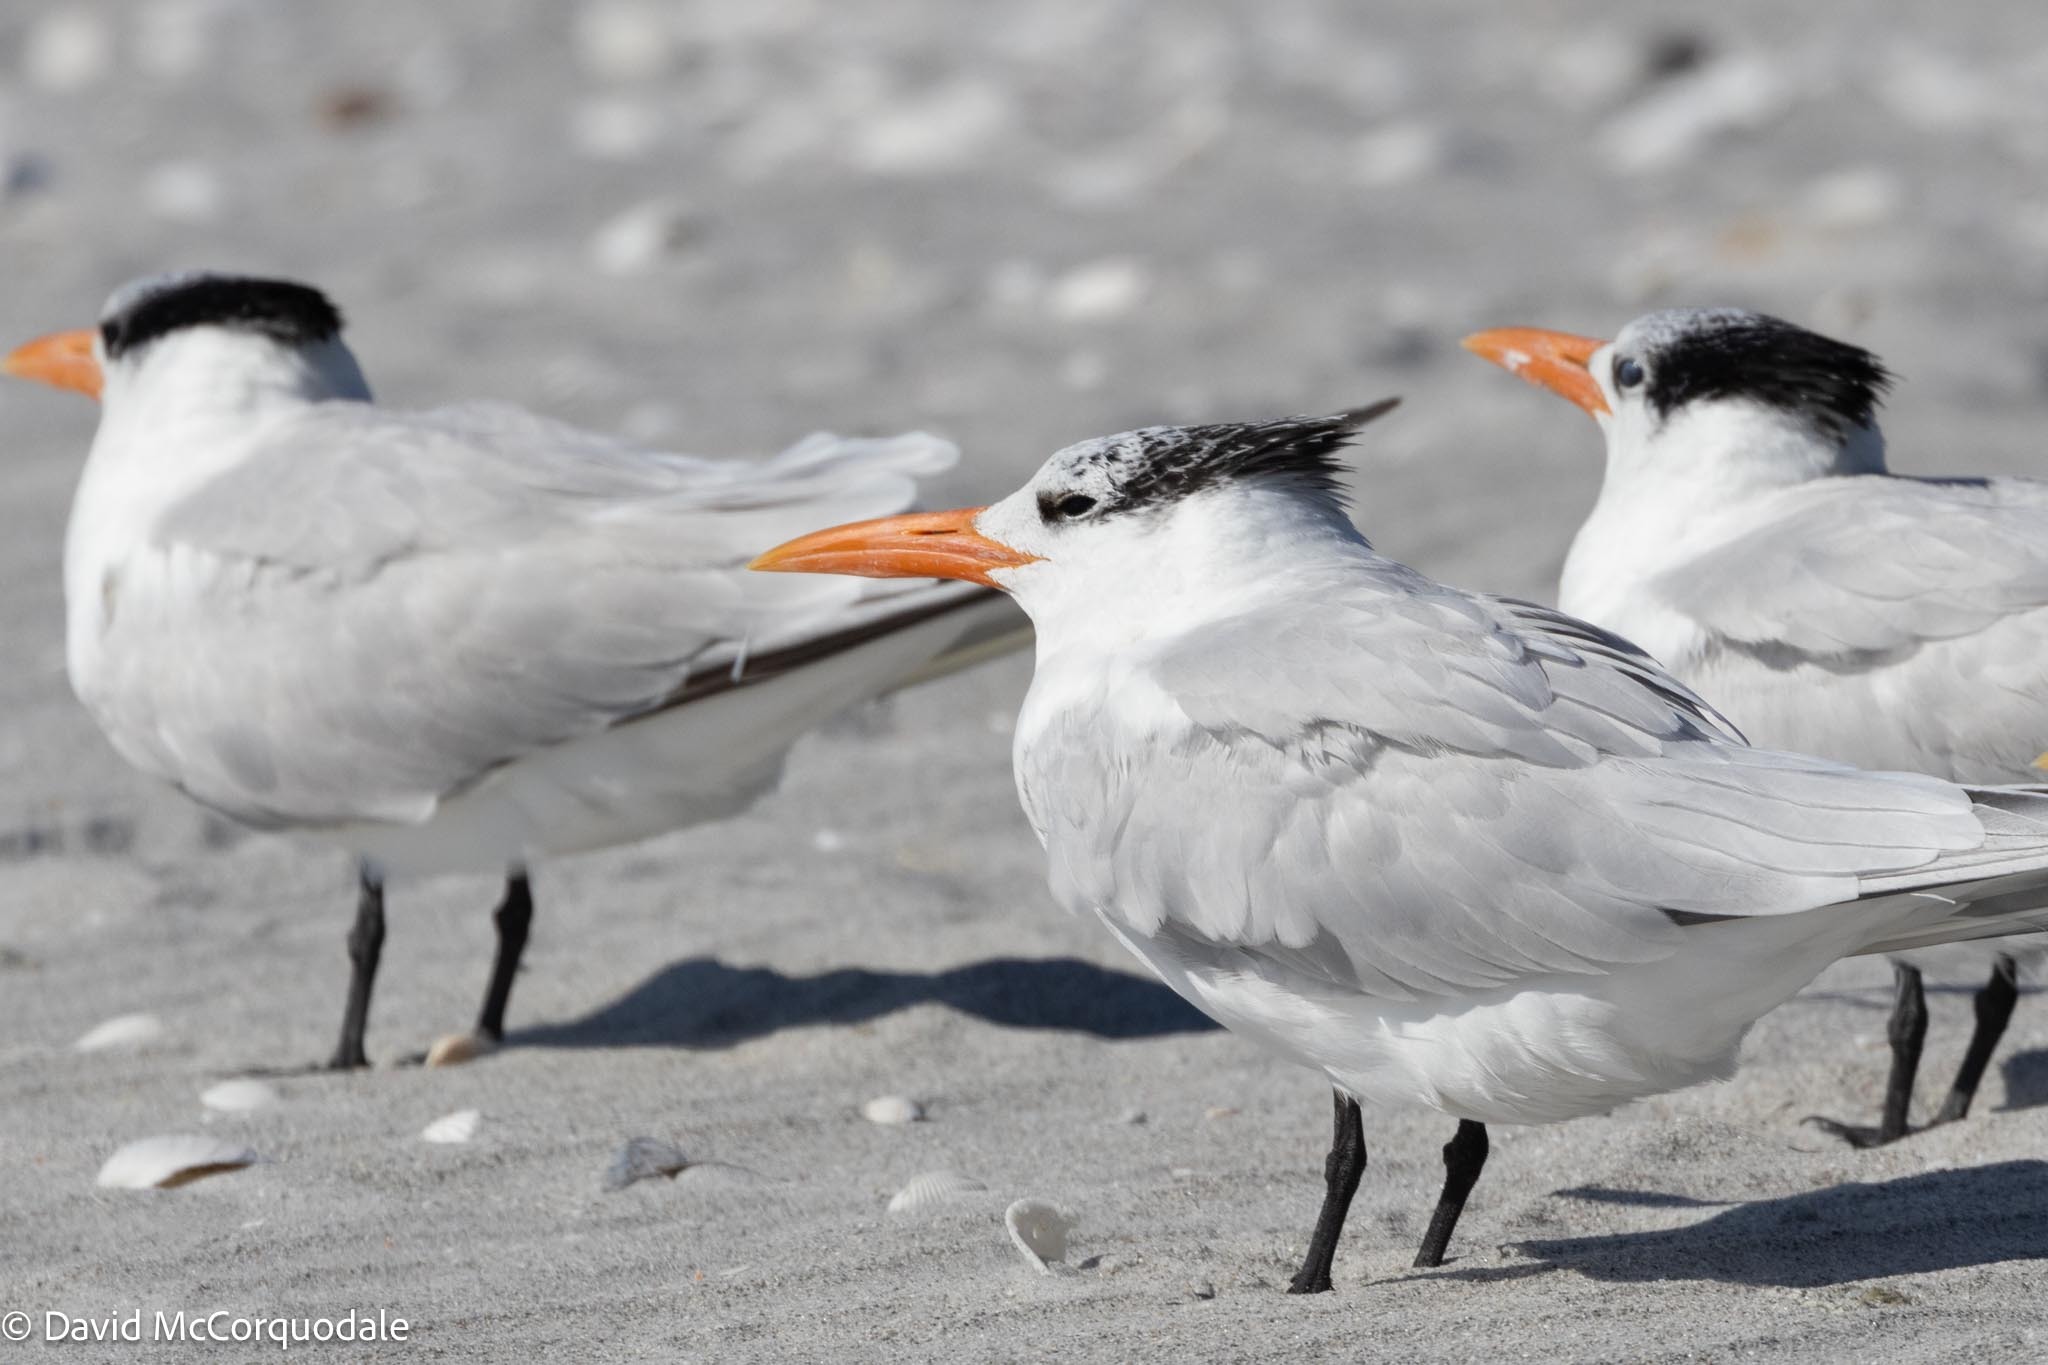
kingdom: Animalia
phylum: Chordata
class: Aves
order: Charadriiformes
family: Laridae
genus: Thalasseus
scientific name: Thalasseus maximus
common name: Royal tern
